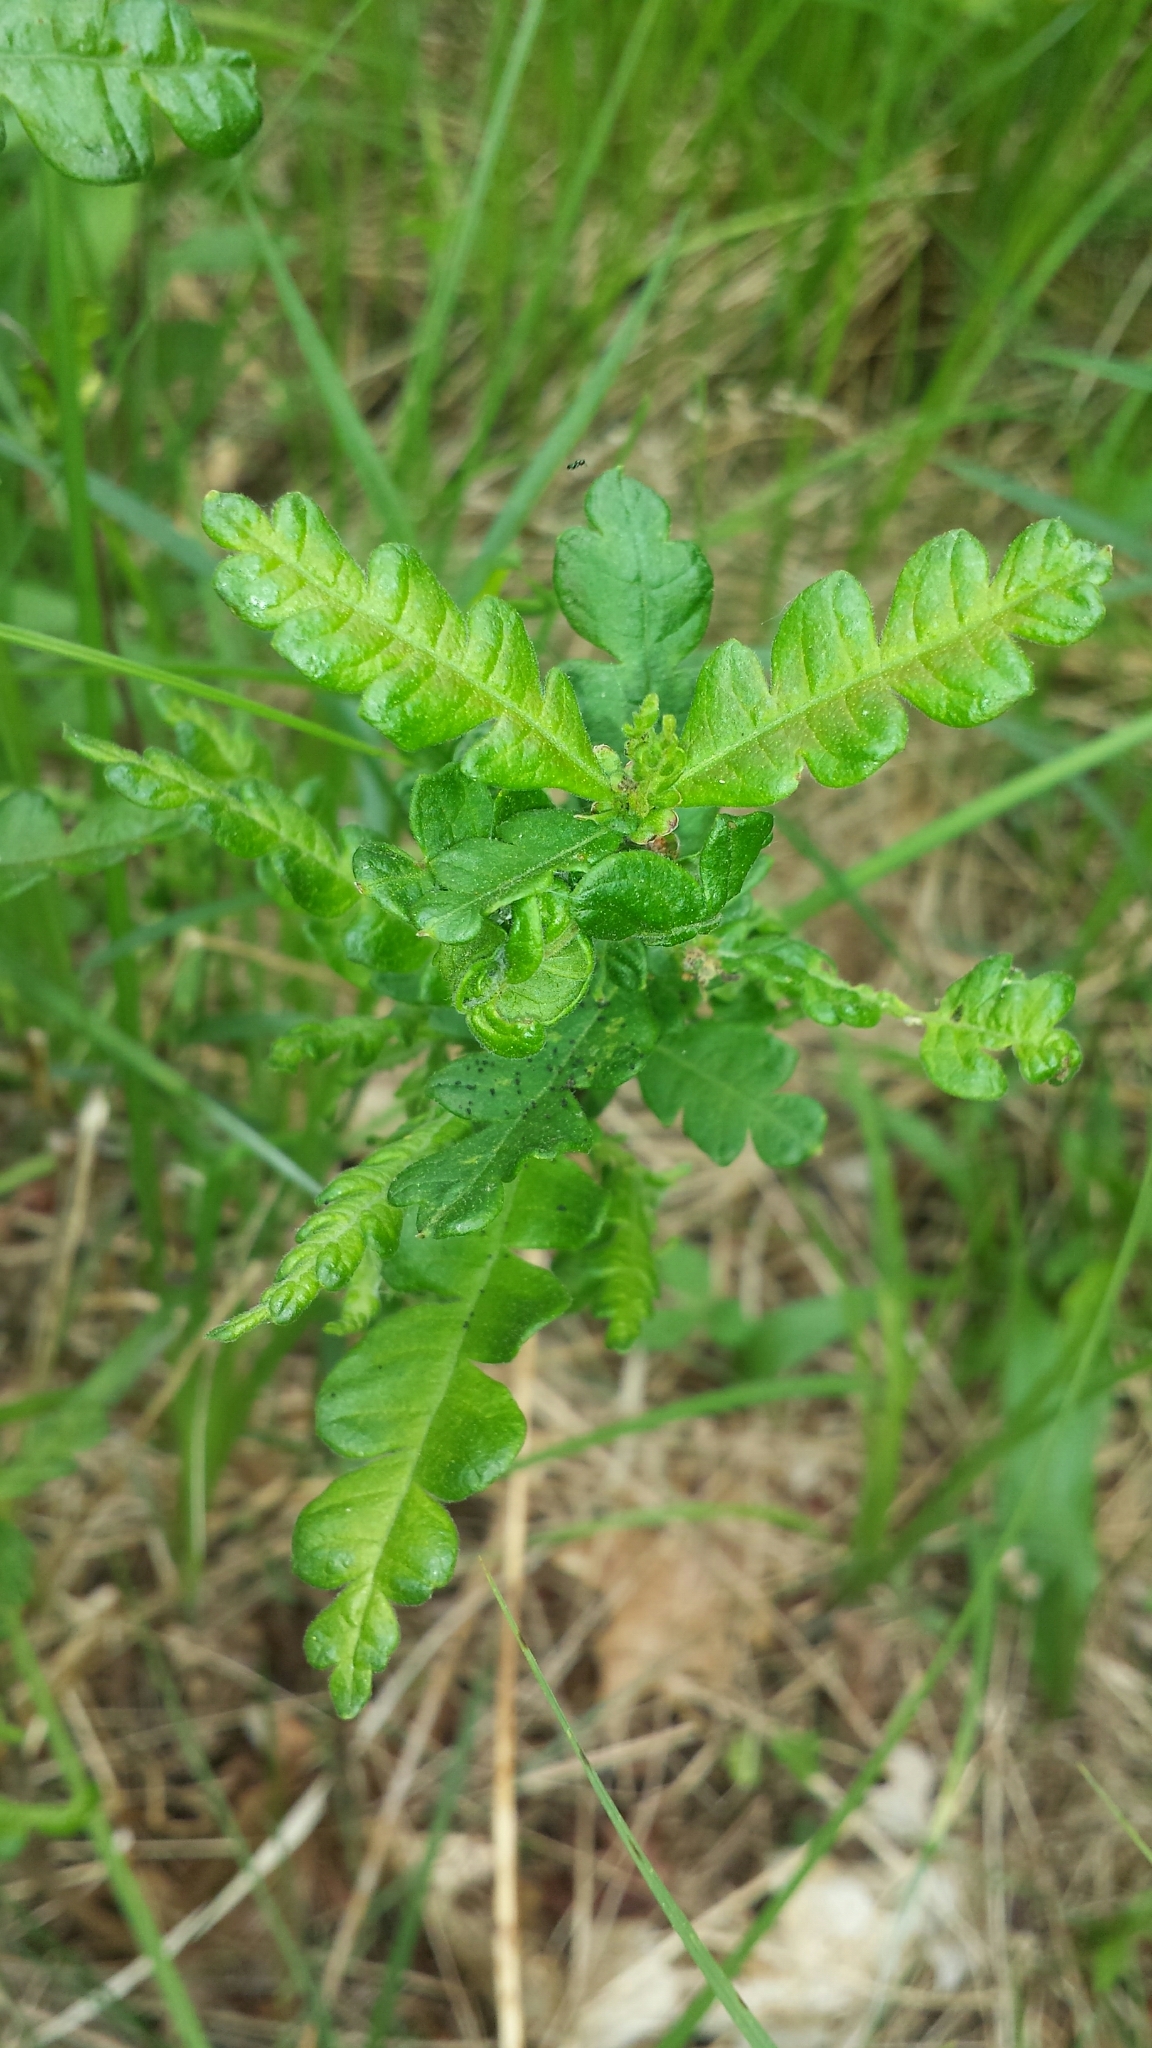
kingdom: Plantae
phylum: Tracheophyta
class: Magnoliopsida
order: Fagales
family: Myricaceae
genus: Comptonia
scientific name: Comptonia peregrina
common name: Sweet-fern
